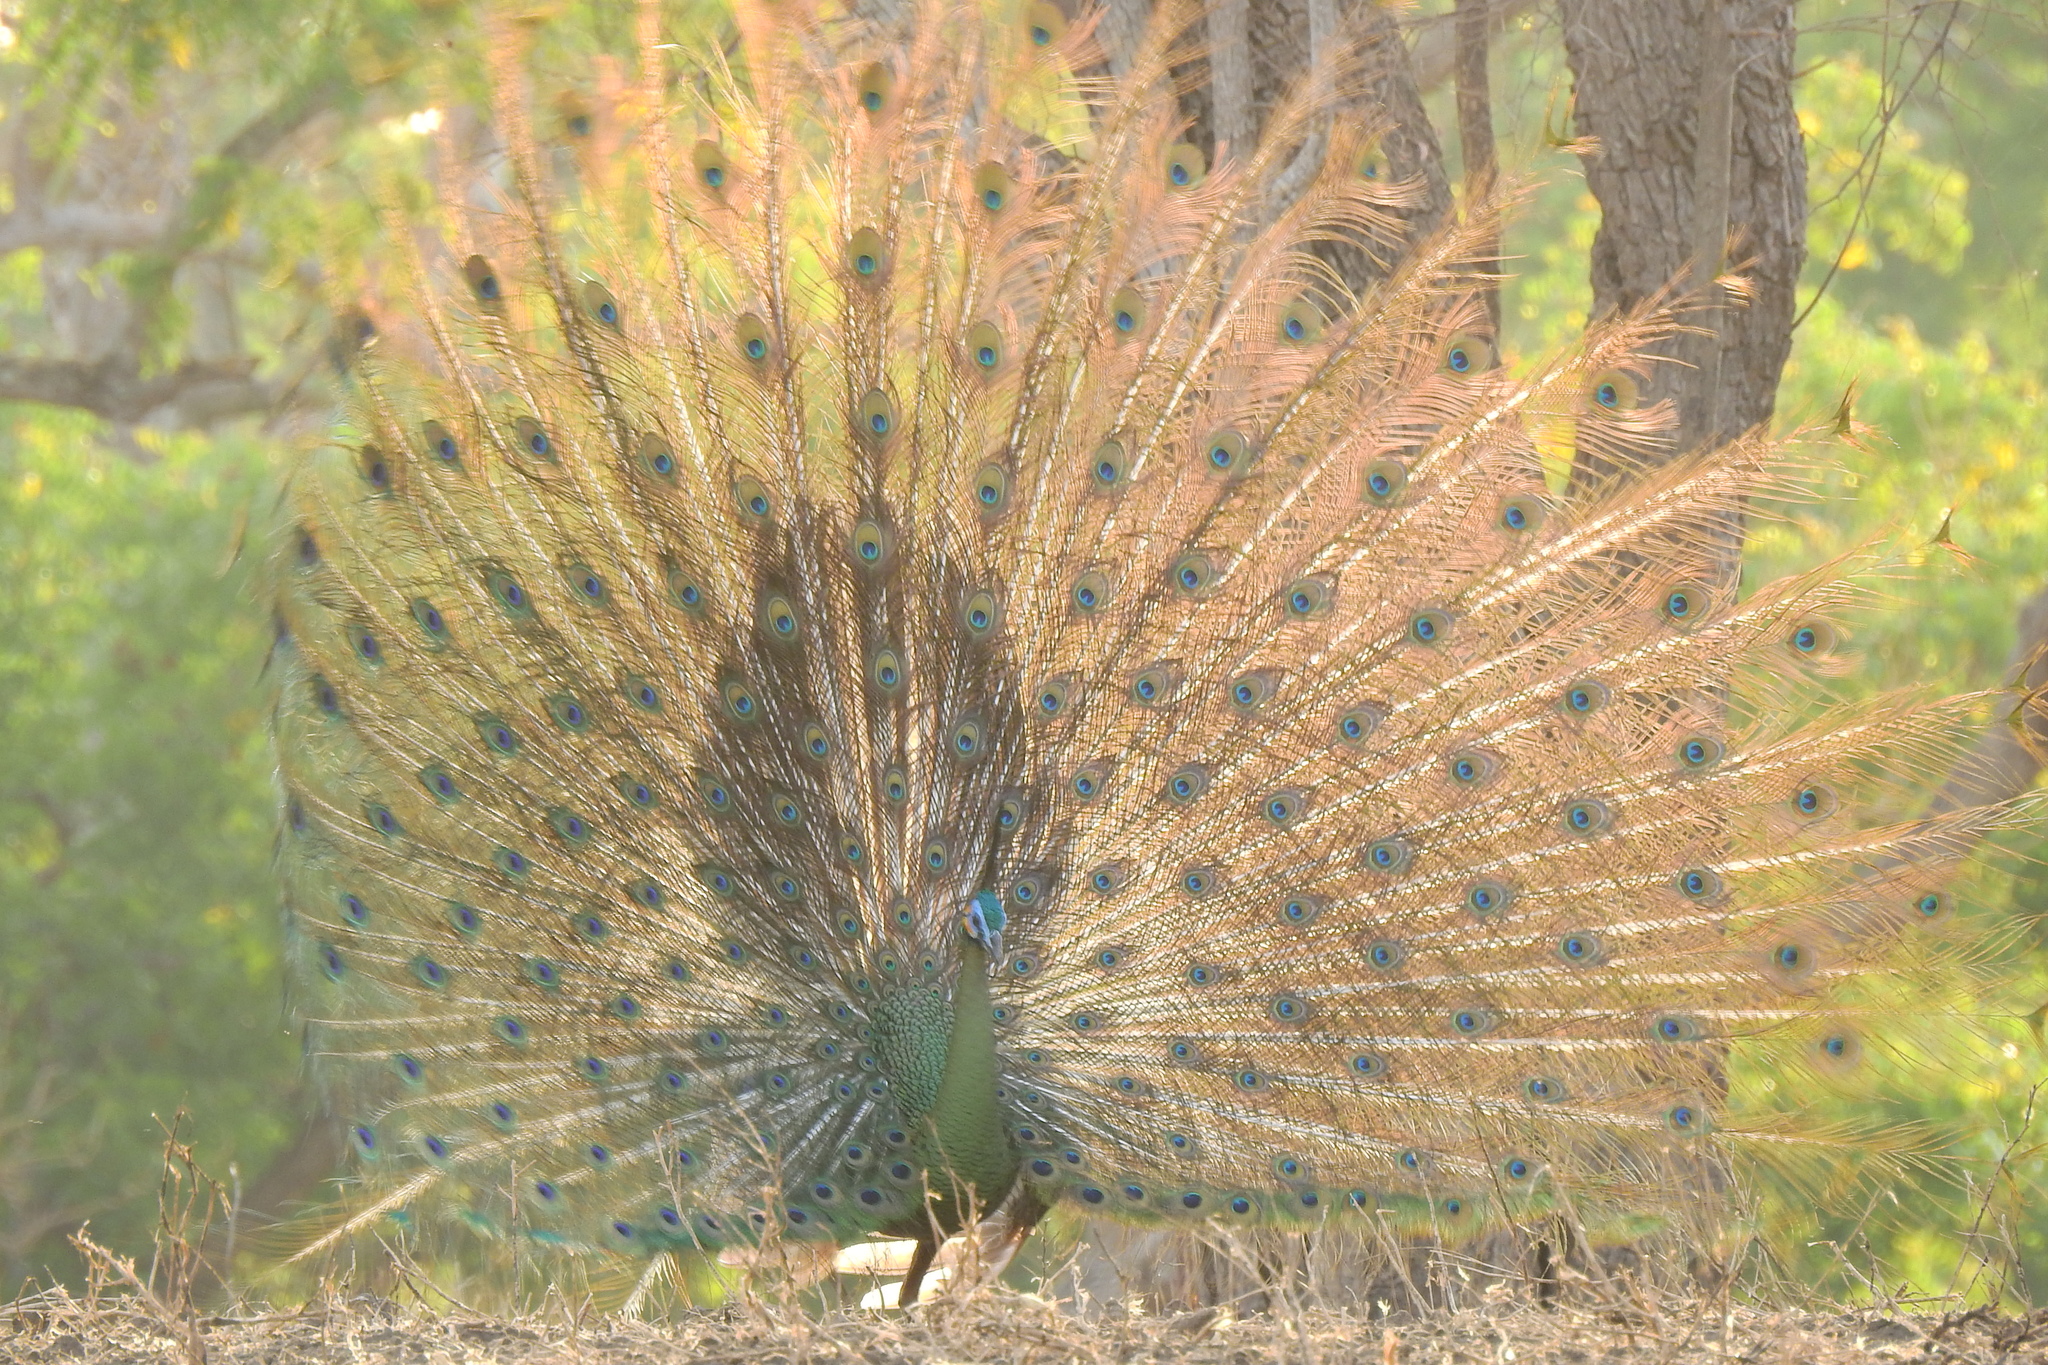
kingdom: Animalia
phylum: Chordata
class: Aves
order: Galliformes
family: Phasianidae
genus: Pavo
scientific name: Pavo muticus
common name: Green peafowl
